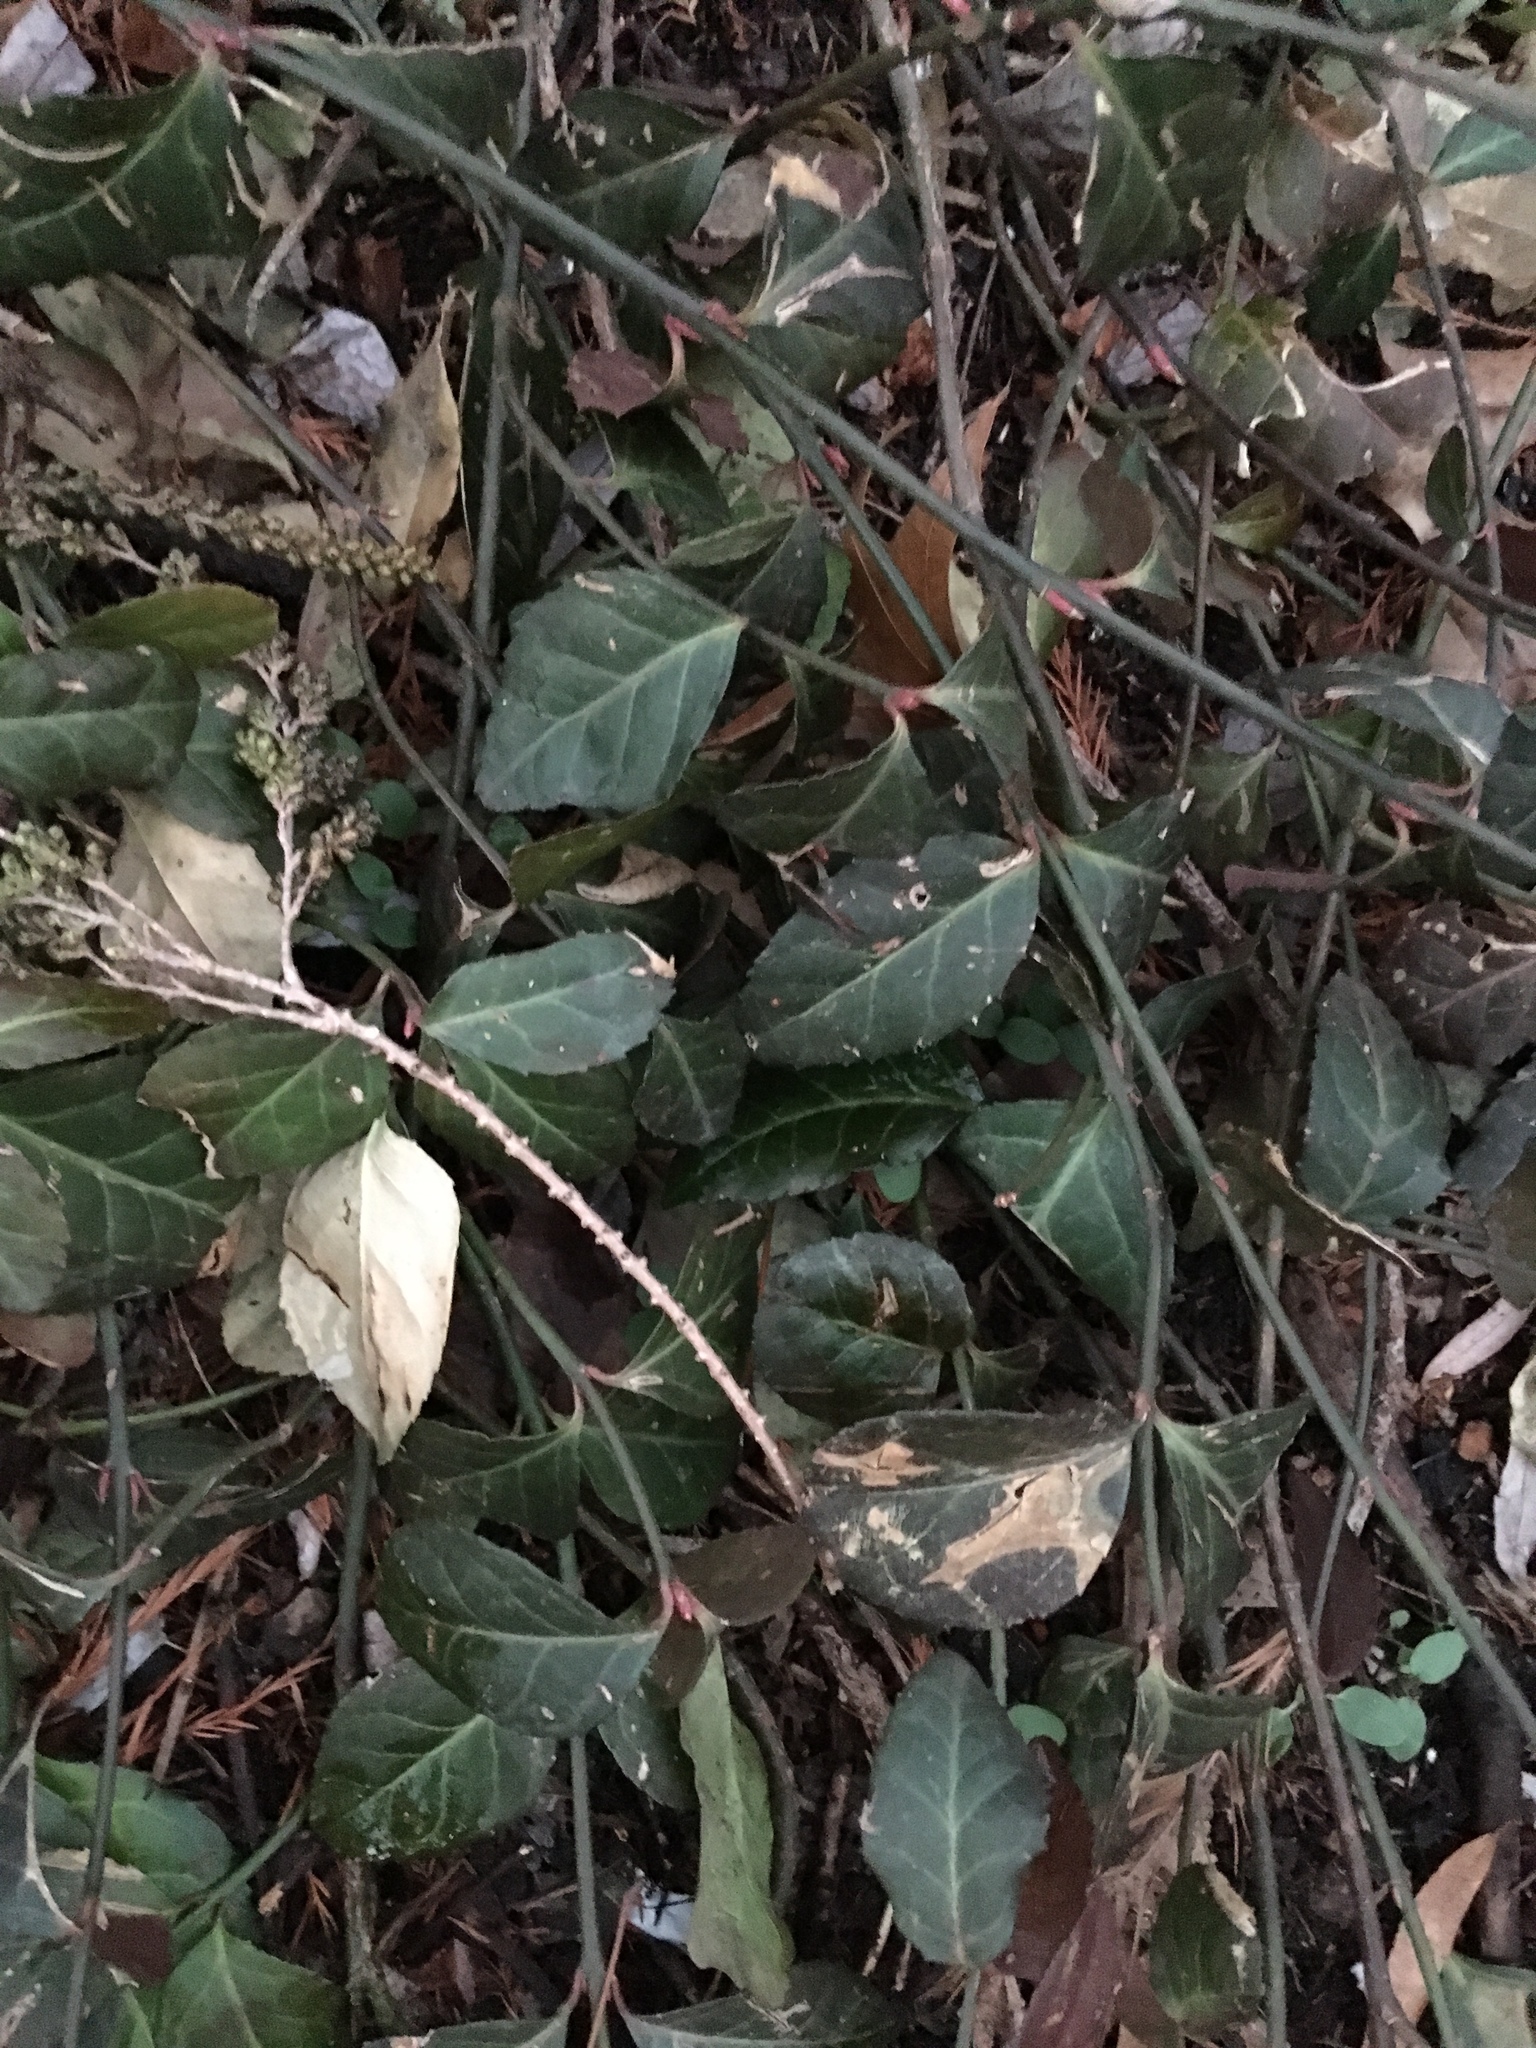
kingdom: Plantae
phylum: Tracheophyta
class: Magnoliopsida
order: Celastrales
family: Celastraceae
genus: Euonymus
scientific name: Euonymus fortunei
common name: Climbing euonymus
